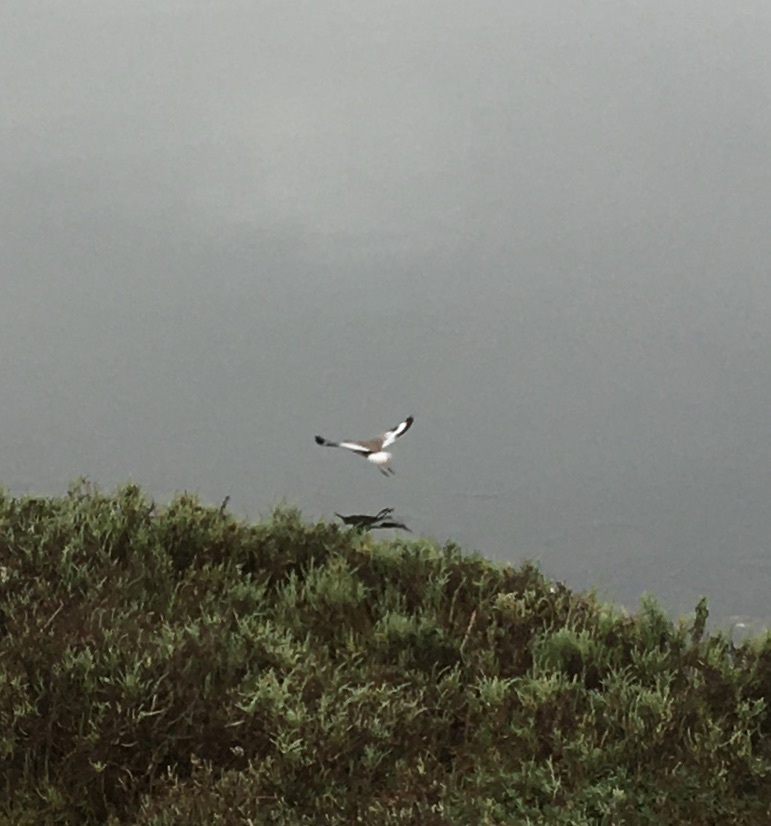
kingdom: Animalia
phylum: Chordata
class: Aves
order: Charadriiformes
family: Scolopacidae
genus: Tringa
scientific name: Tringa semipalmata
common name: Willet
